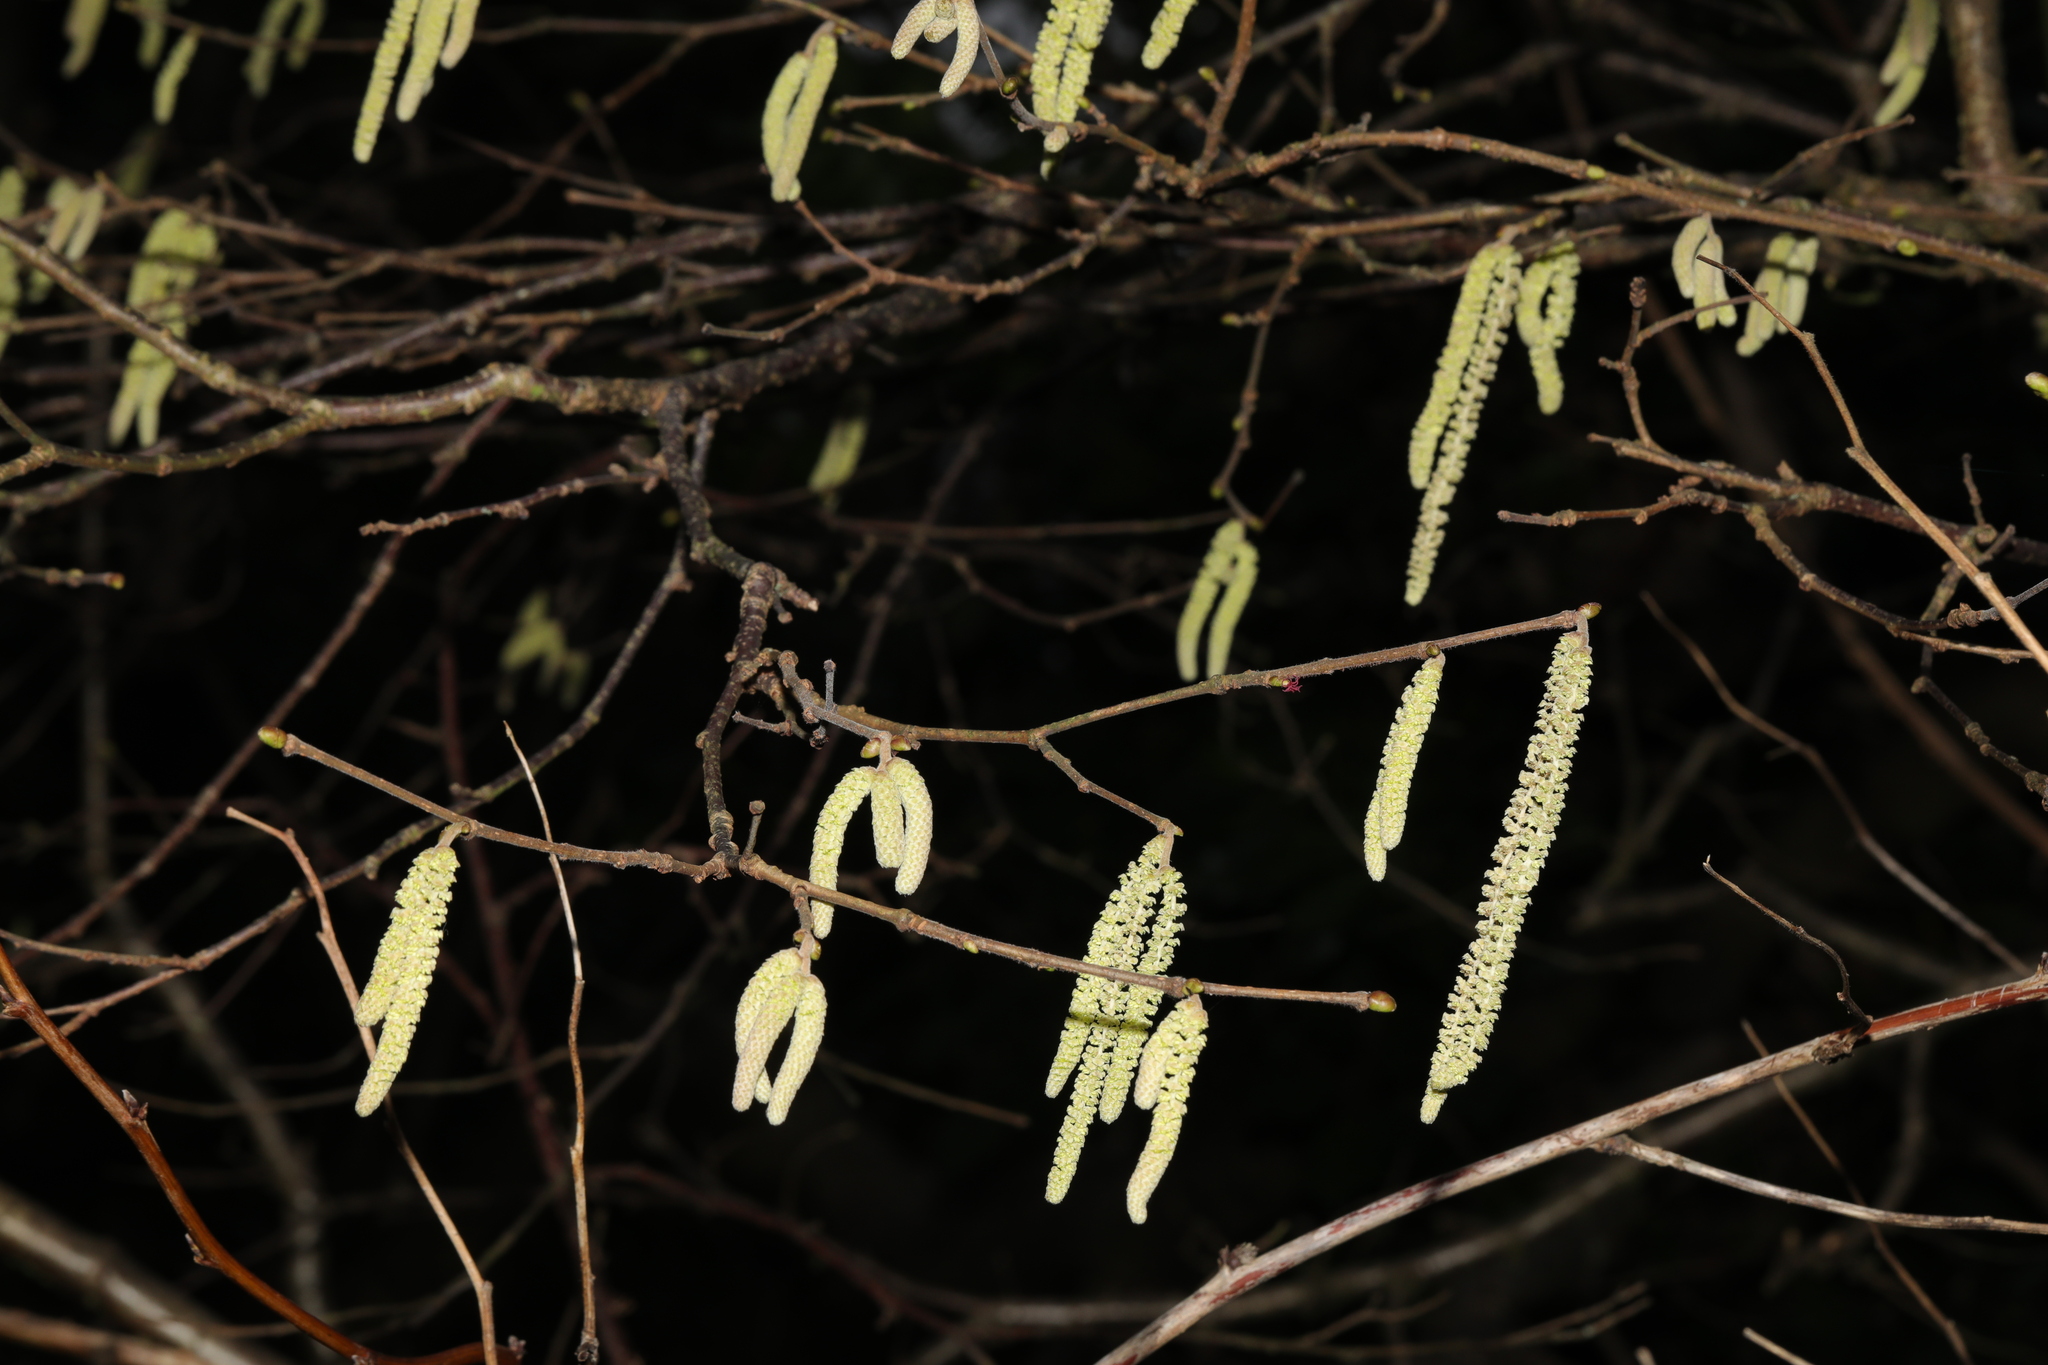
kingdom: Plantae
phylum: Tracheophyta
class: Magnoliopsida
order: Fagales
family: Betulaceae
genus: Corylus
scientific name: Corylus avellana
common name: European hazel
